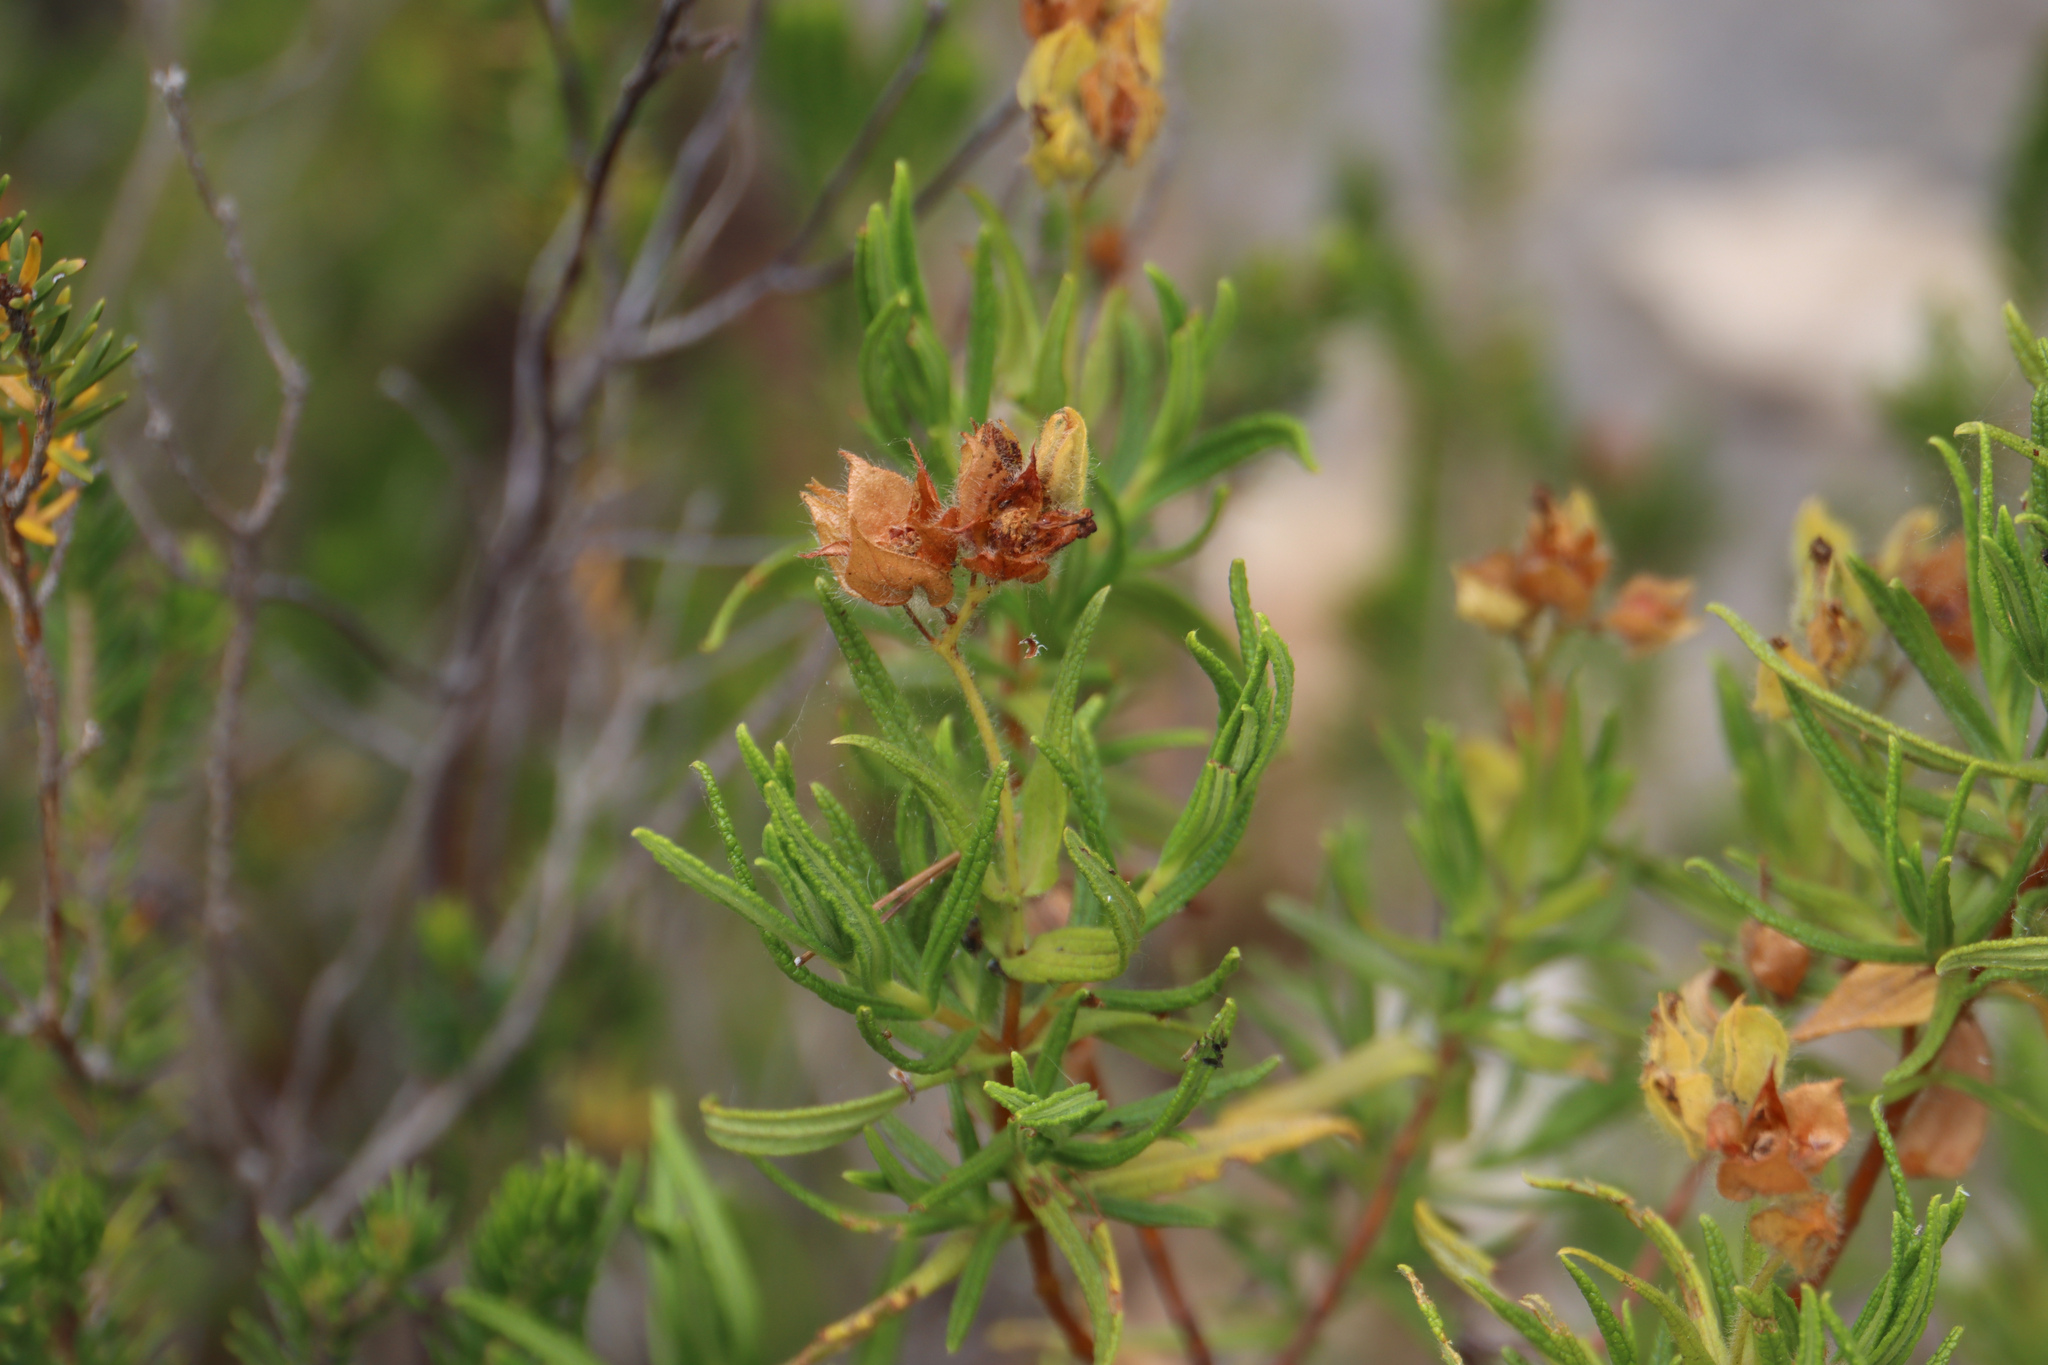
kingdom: Plantae
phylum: Tracheophyta
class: Magnoliopsida
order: Malvales
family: Cistaceae
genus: Cistus
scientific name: Cistus monspeliensis
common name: Montpelier cistus
